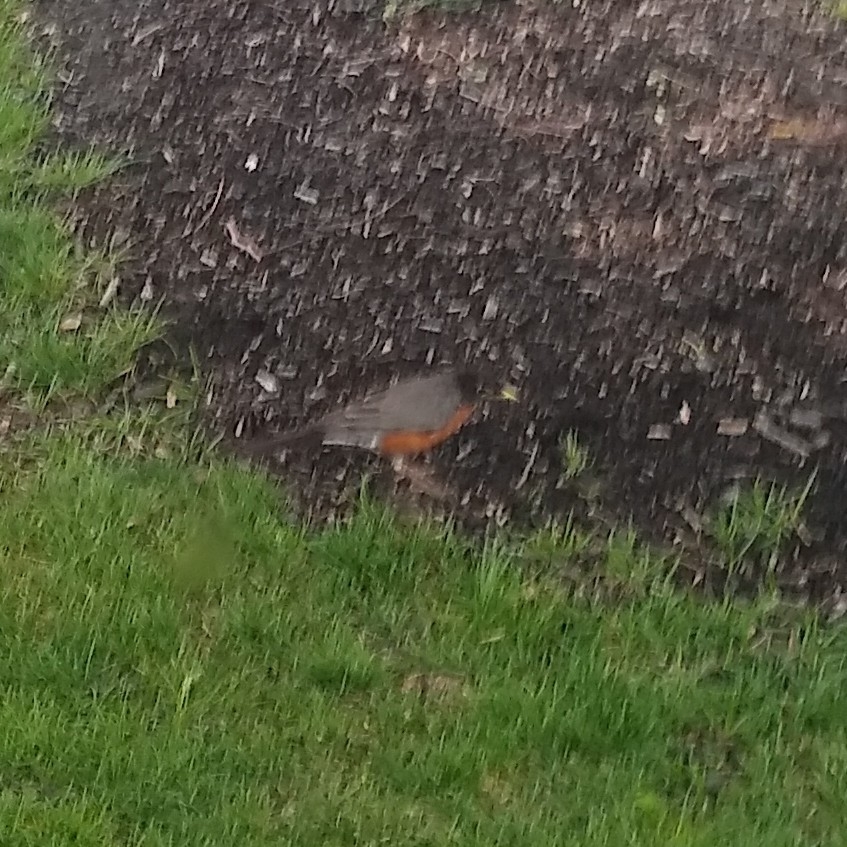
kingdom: Animalia
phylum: Chordata
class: Aves
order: Passeriformes
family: Turdidae
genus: Turdus
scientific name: Turdus migratorius
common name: American robin
